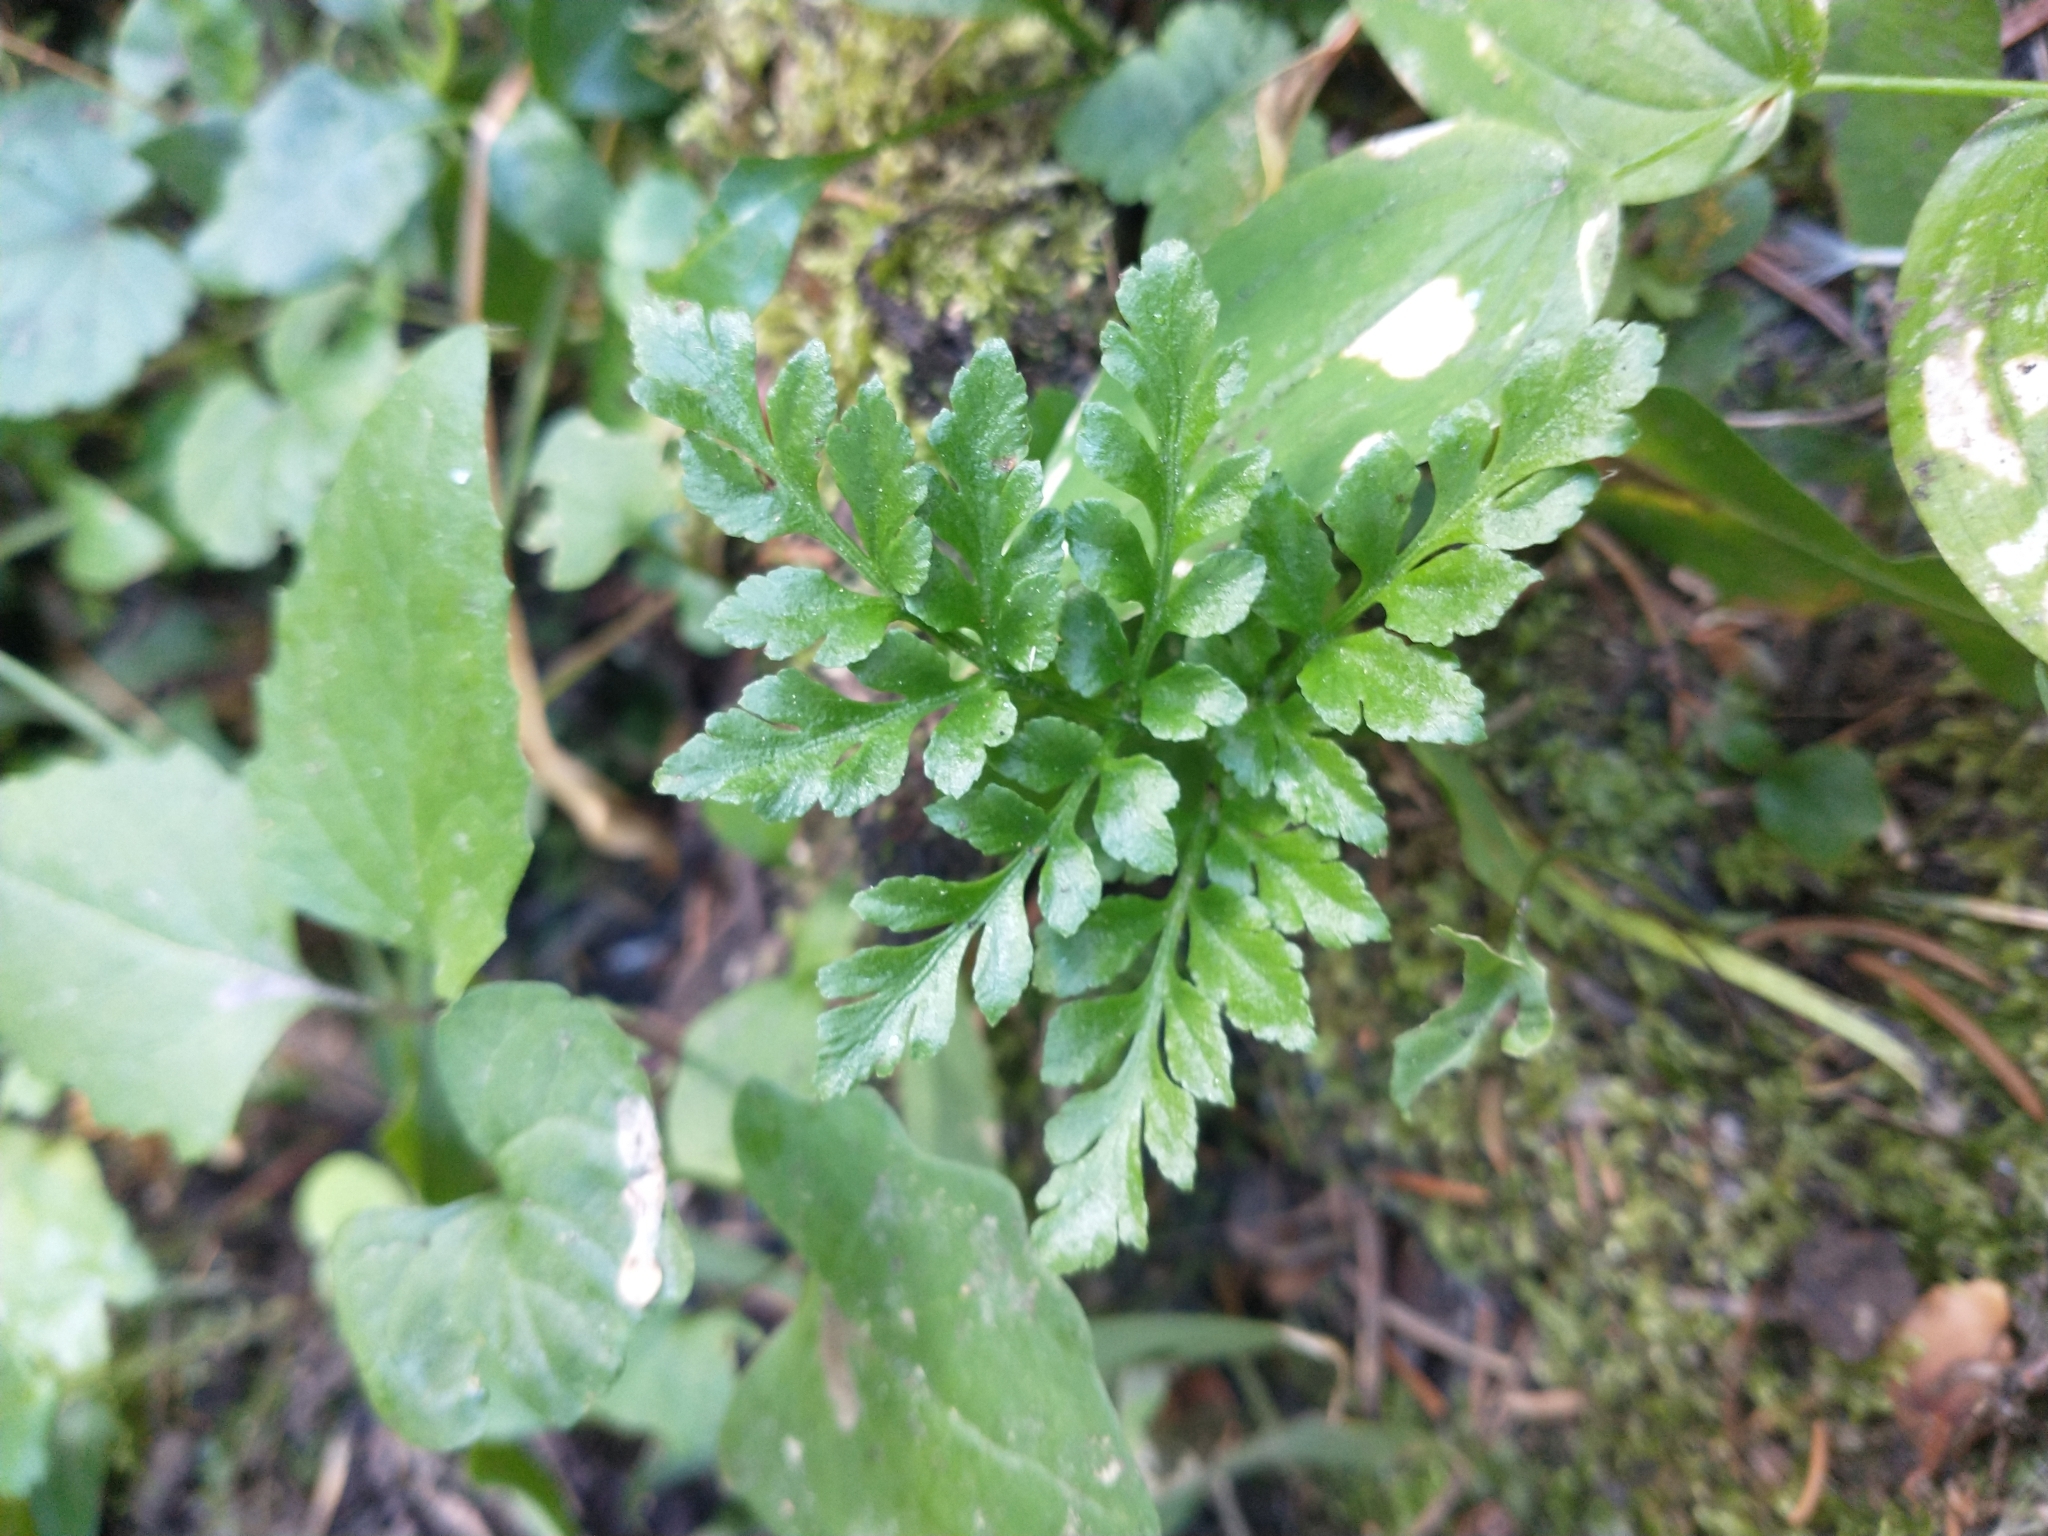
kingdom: Plantae
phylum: Tracheophyta
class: Polypodiopsida
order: Ophioglossales
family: Ophioglossaceae
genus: Sceptridium
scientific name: Sceptridium multifidum
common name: Leathery grape fern
